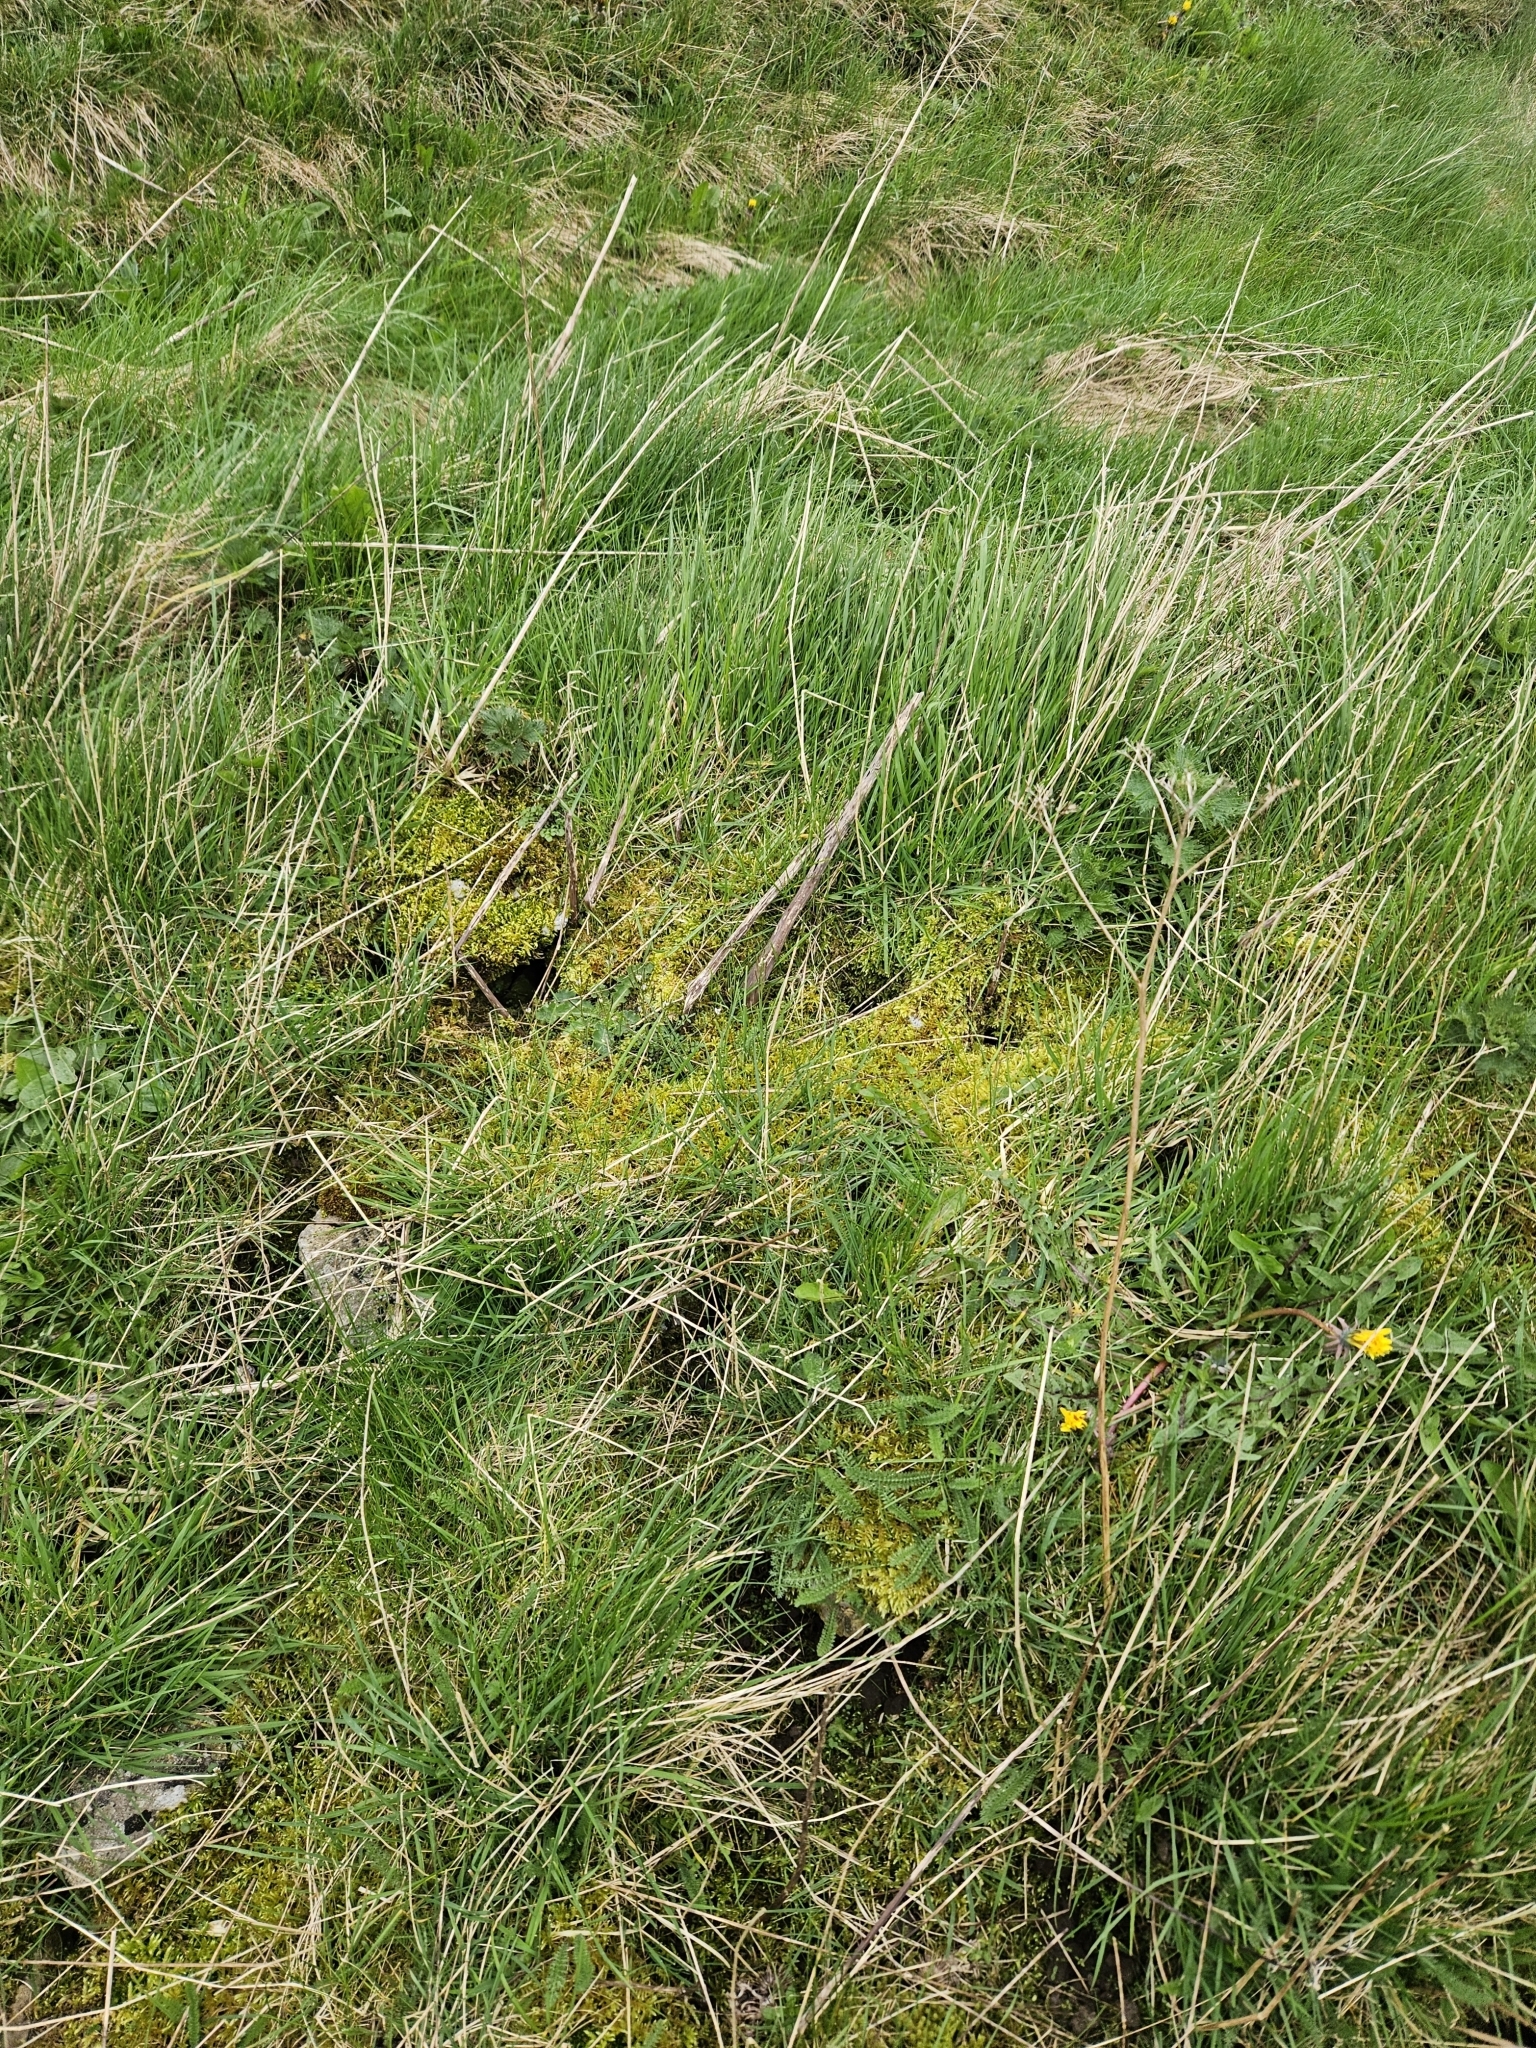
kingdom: Plantae
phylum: Bryophyta
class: Bryopsida
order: Hypnales
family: Brachytheciaceae
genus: Pseudoscleropodium
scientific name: Pseudoscleropodium purum
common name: Neat feather-moss
